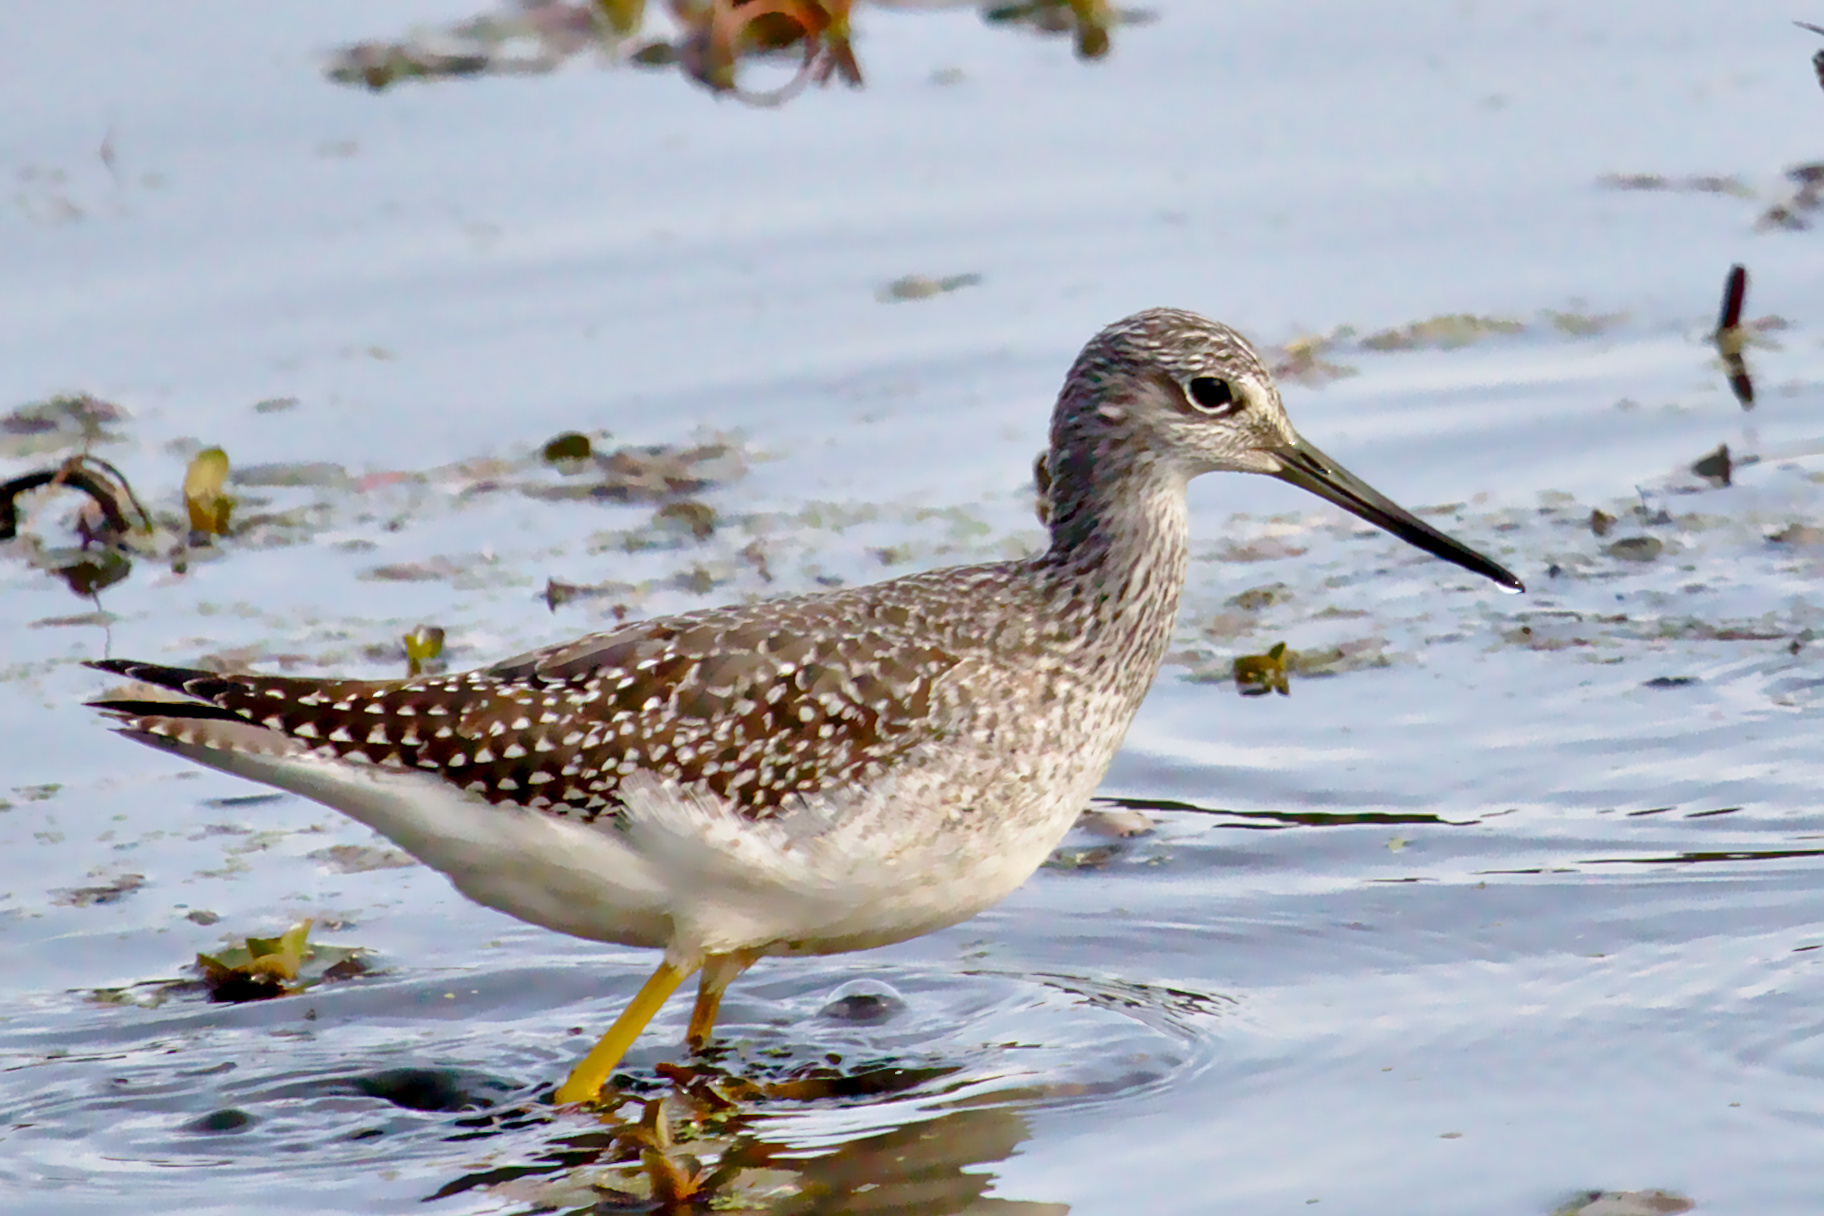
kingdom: Animalia
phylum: Chordata
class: Aves
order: Charadriiformes
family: Scolopacidae
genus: Tringa
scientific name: Tringa melanoleuca
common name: Greater yellowlegs
